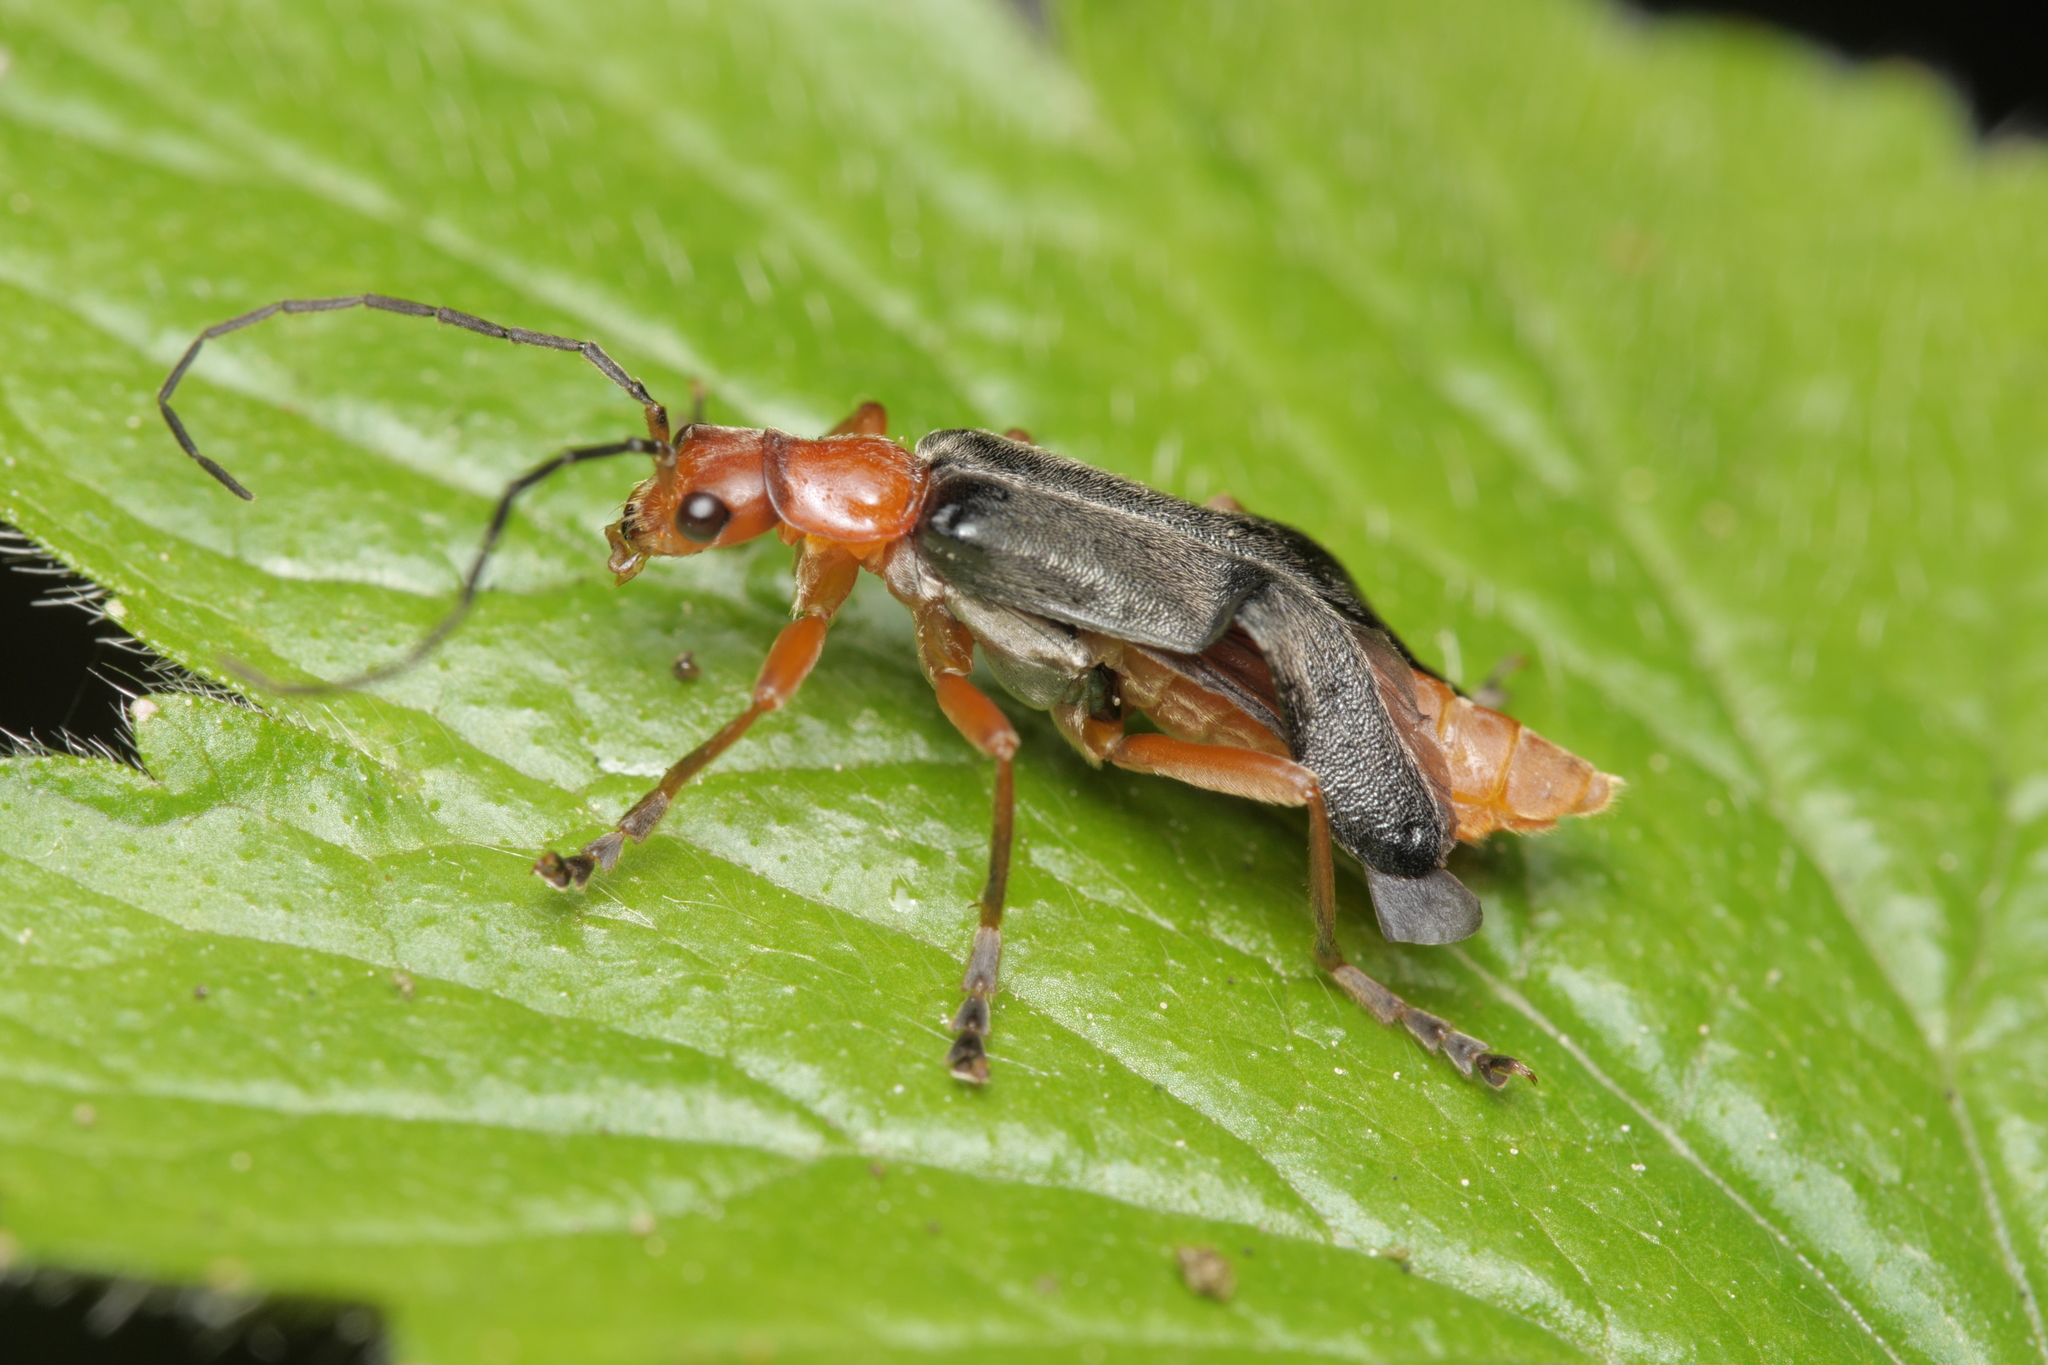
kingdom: Animalia
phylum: Arthropoda
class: Insecta
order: Coleoptera
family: Cantharidae
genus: Ancistronycha
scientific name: Ancistronycha tigurina
